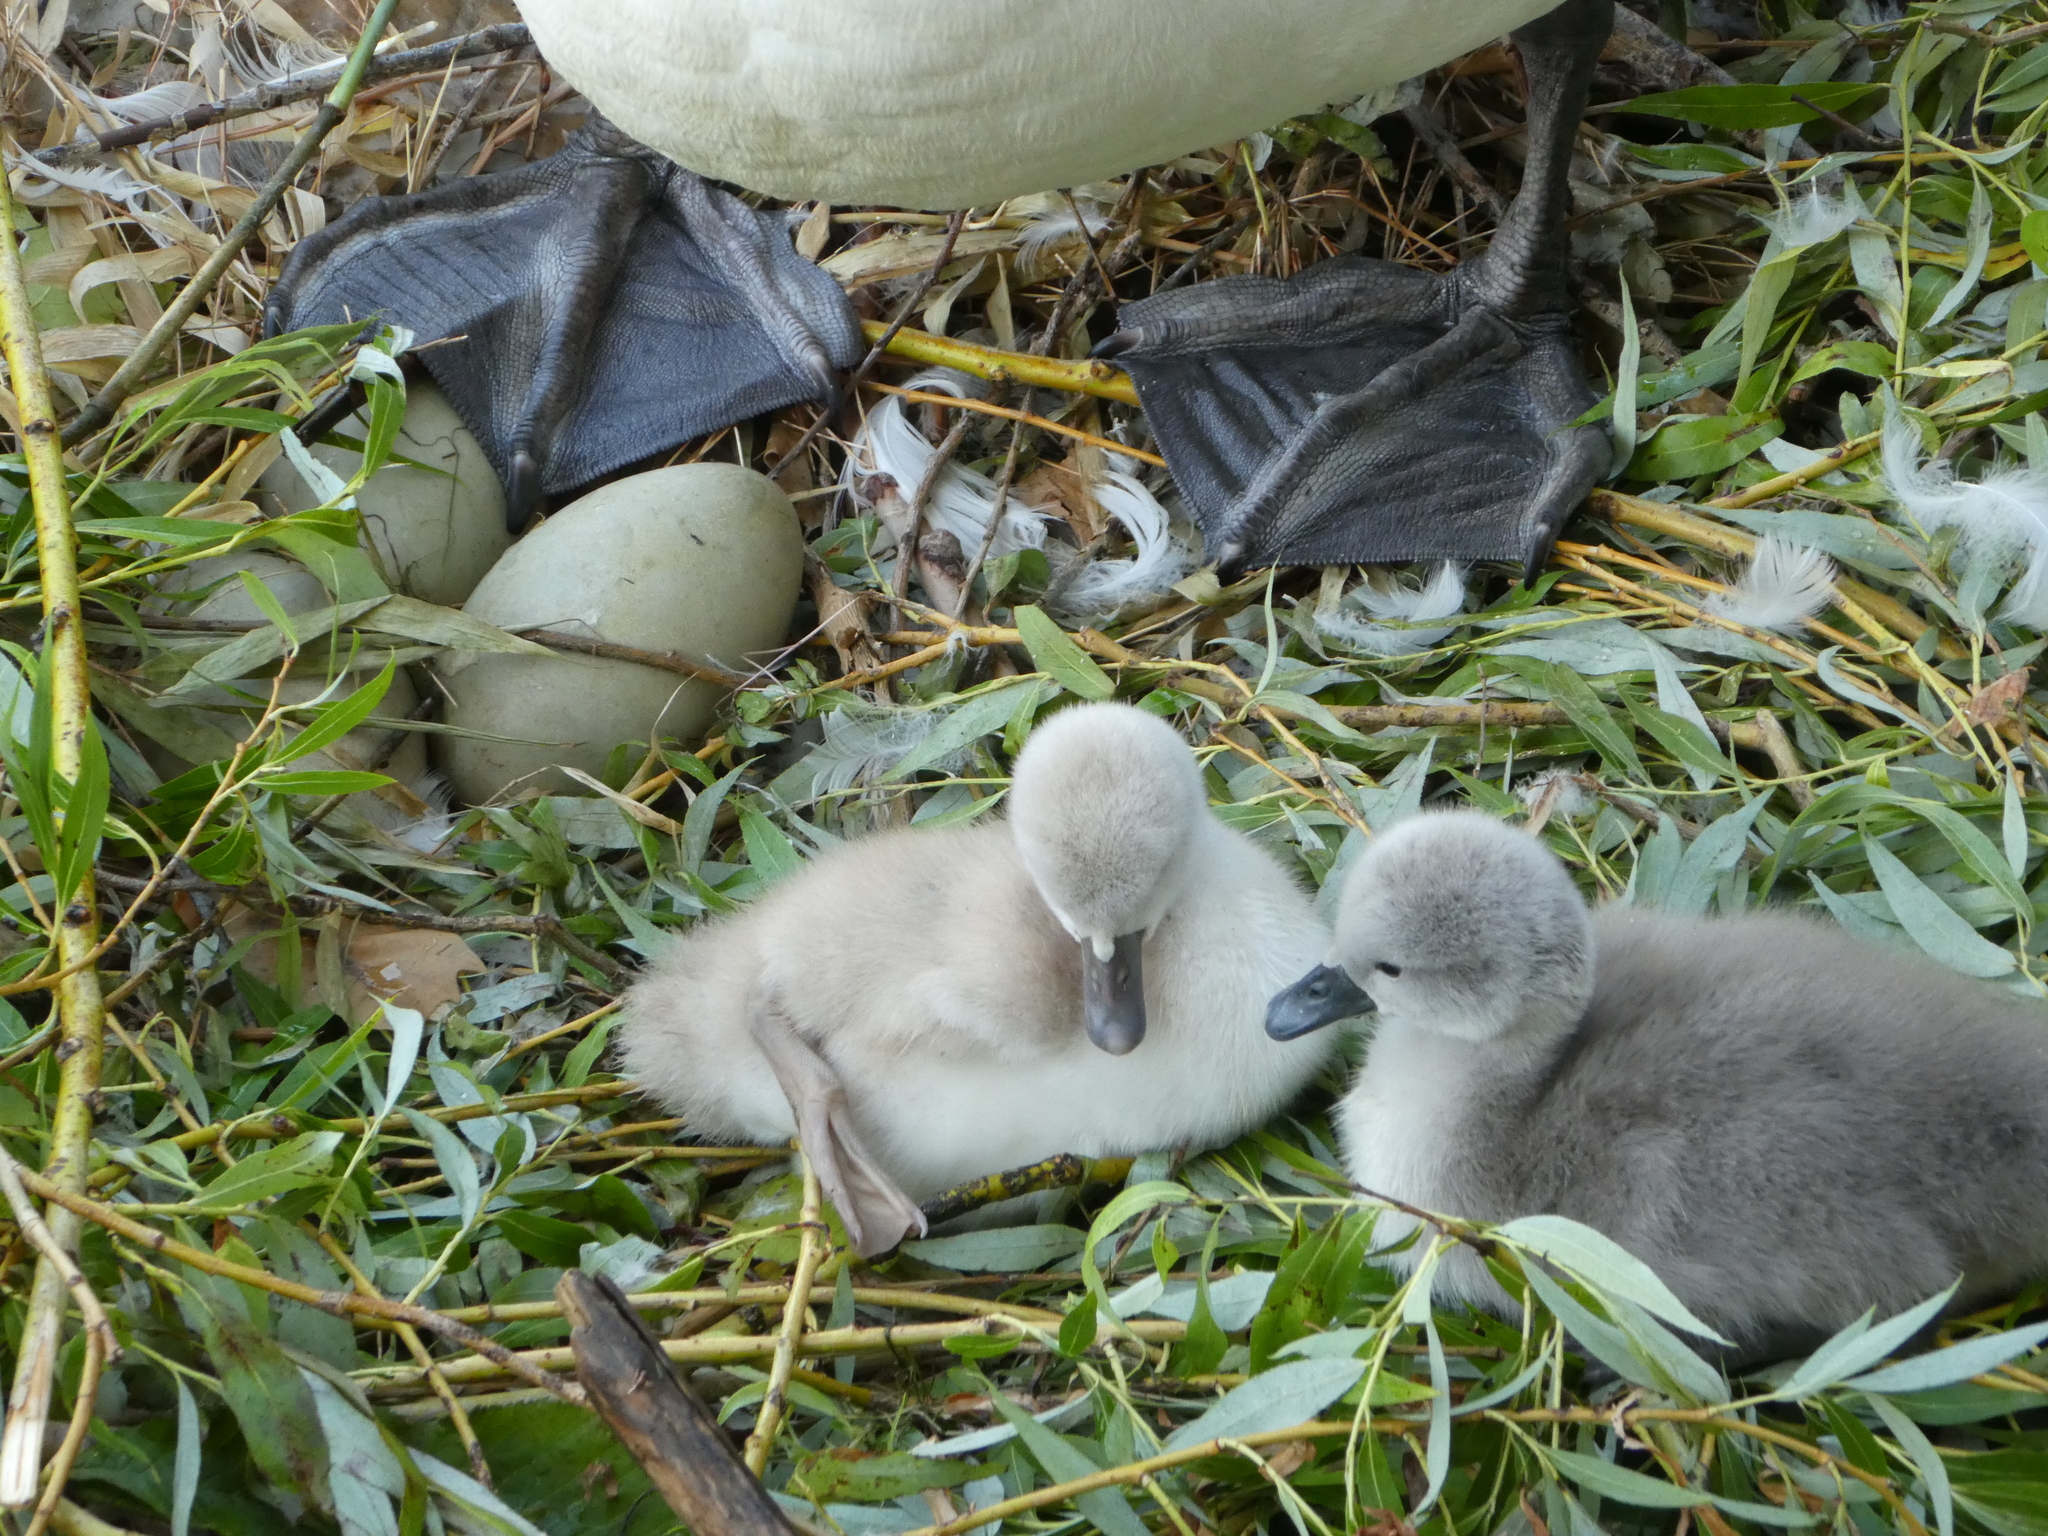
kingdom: Animalia
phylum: Chordata
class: Aves
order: Anseriformes
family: Anatidae
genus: Cygnus
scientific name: Cygnus olor
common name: Mute swan
